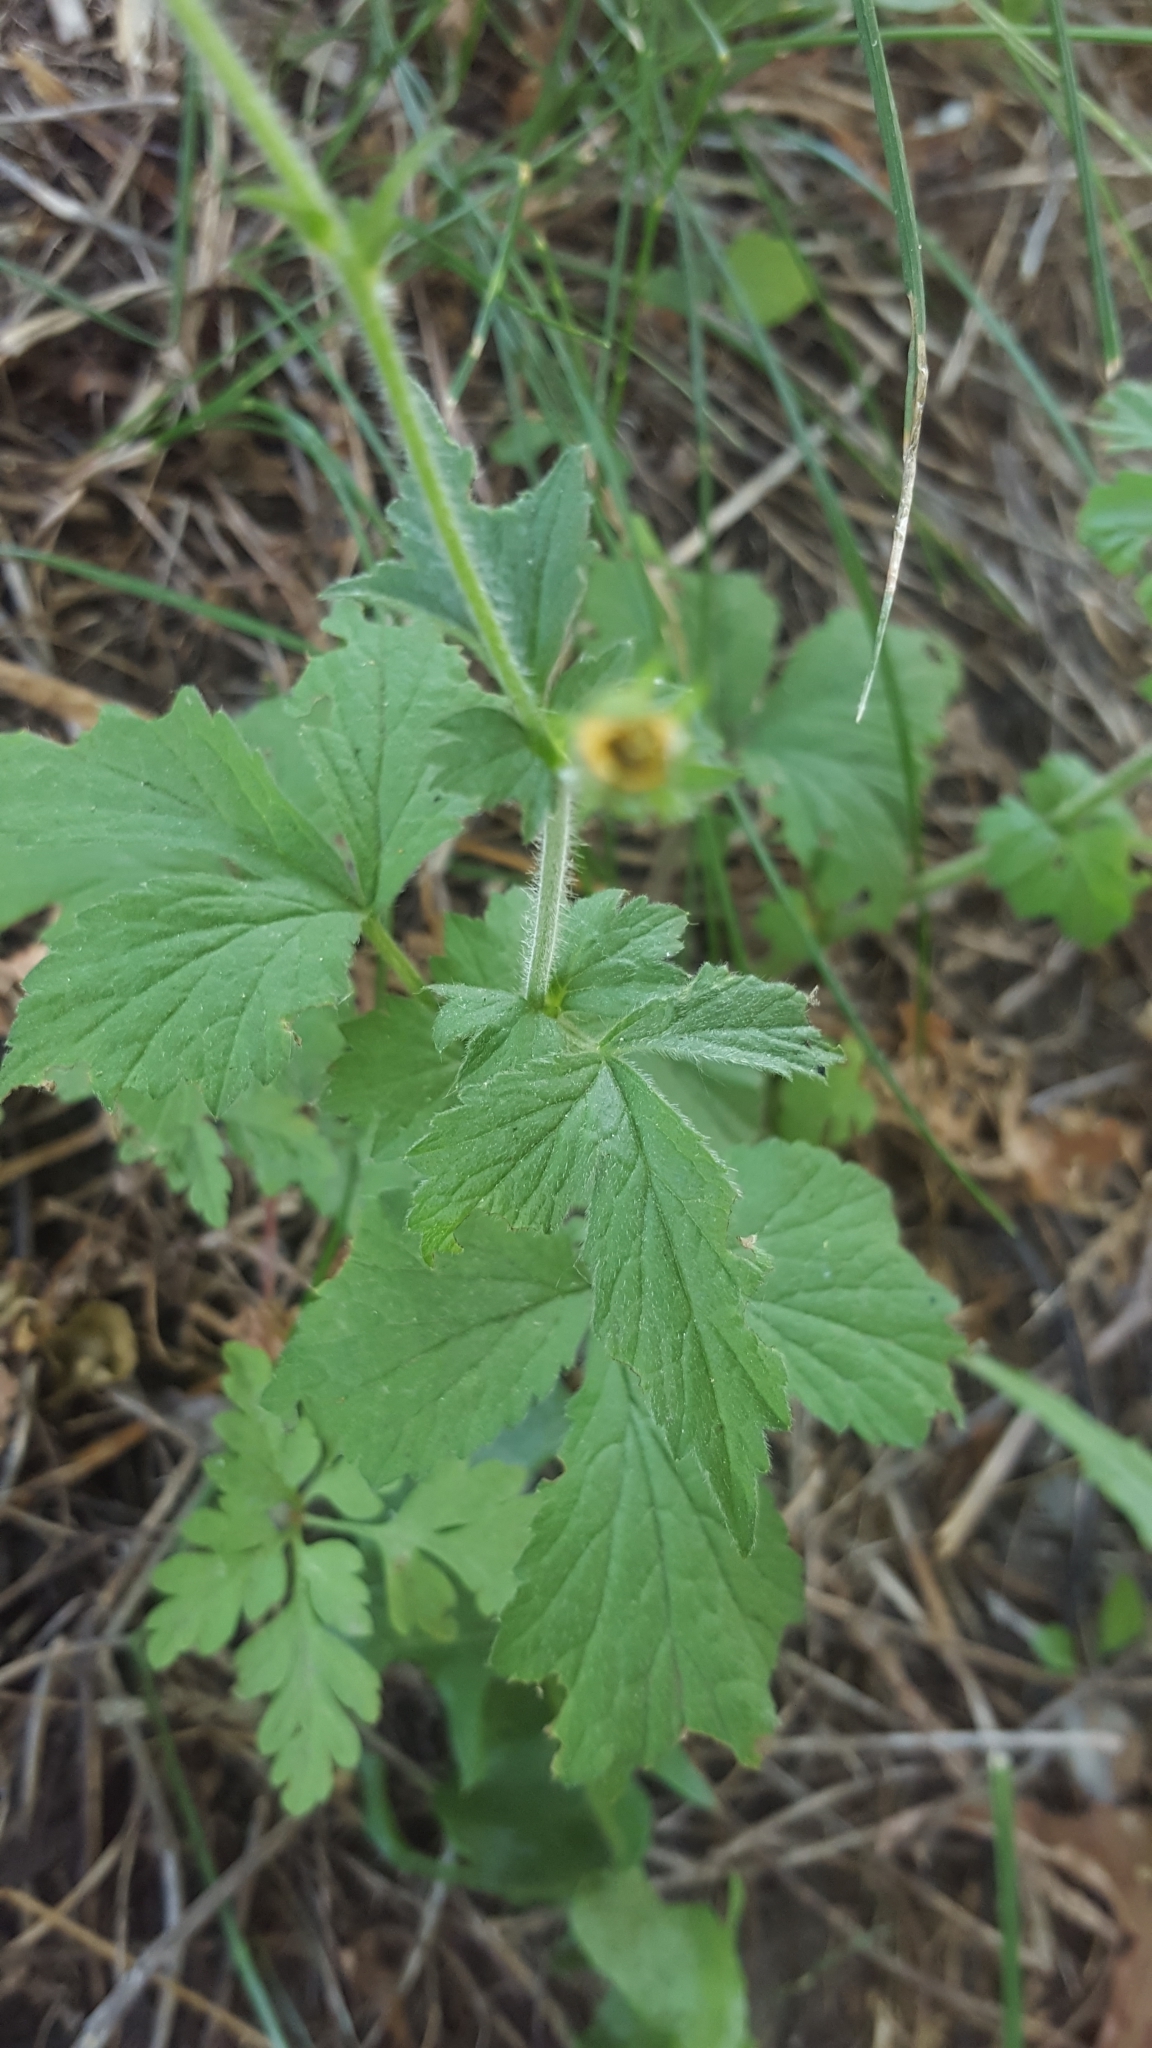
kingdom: Plantae
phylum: Tracheophyta
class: Magnoliopsida
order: Rosales
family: Rosaceae
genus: Geum
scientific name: Geum urbanum
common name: Wood avens
